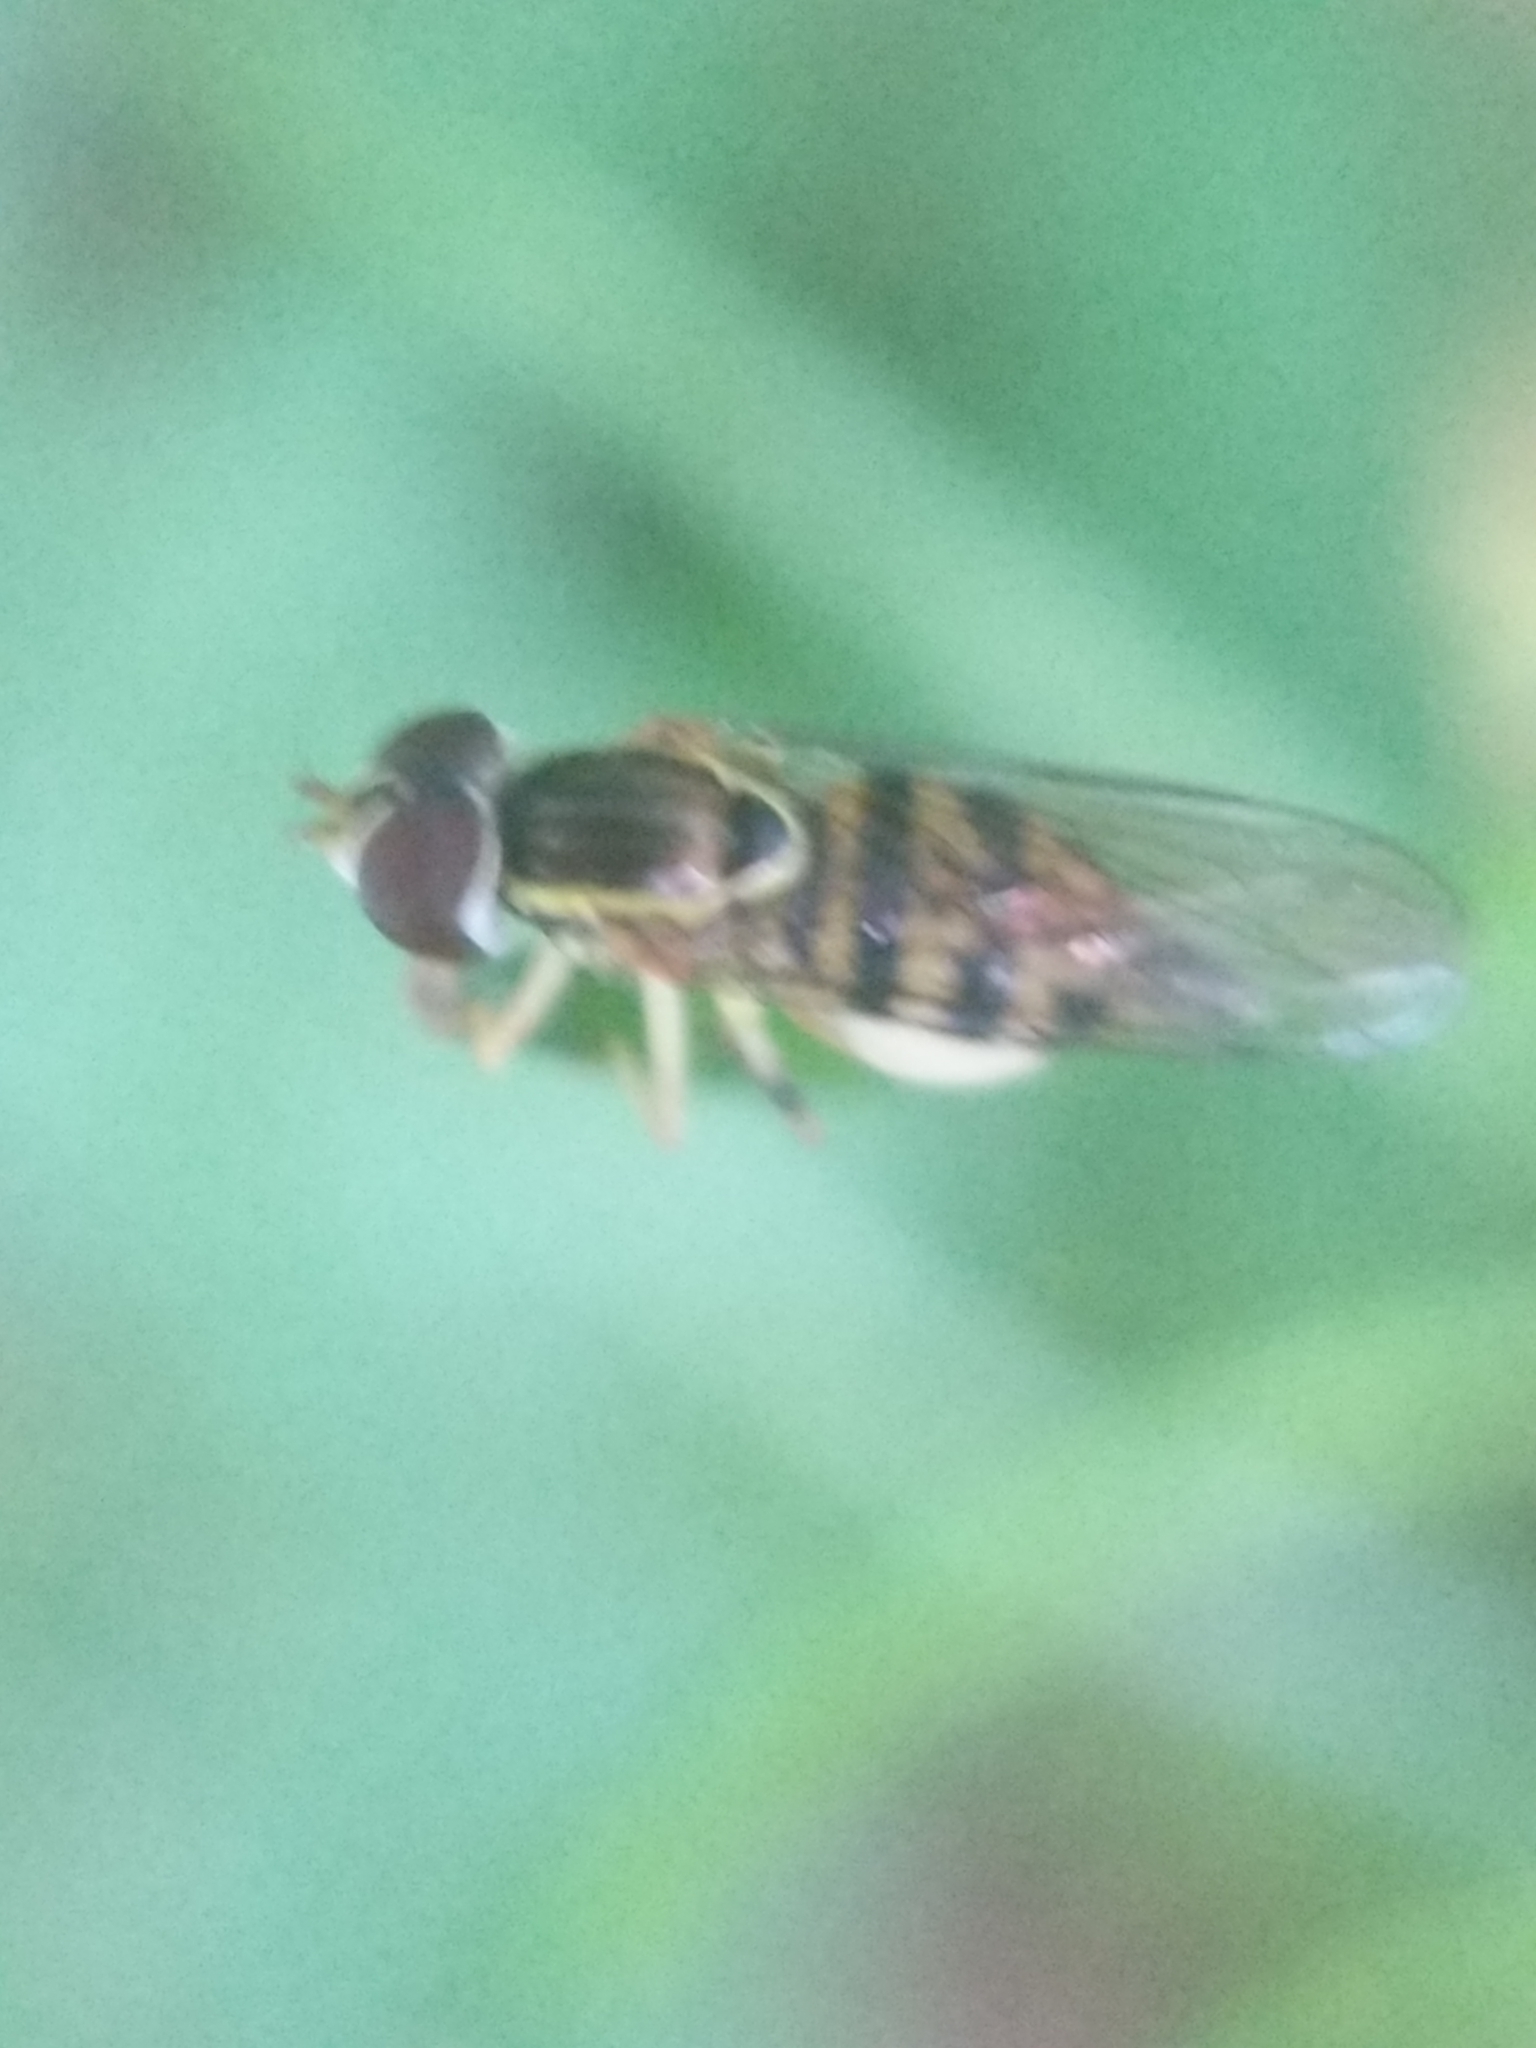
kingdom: Animalia
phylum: Arthropoda
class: Insecta
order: Diptera
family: Syrphidae
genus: Toxomerus
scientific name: Toxomerus geminatus
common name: Eastern calligrapher
